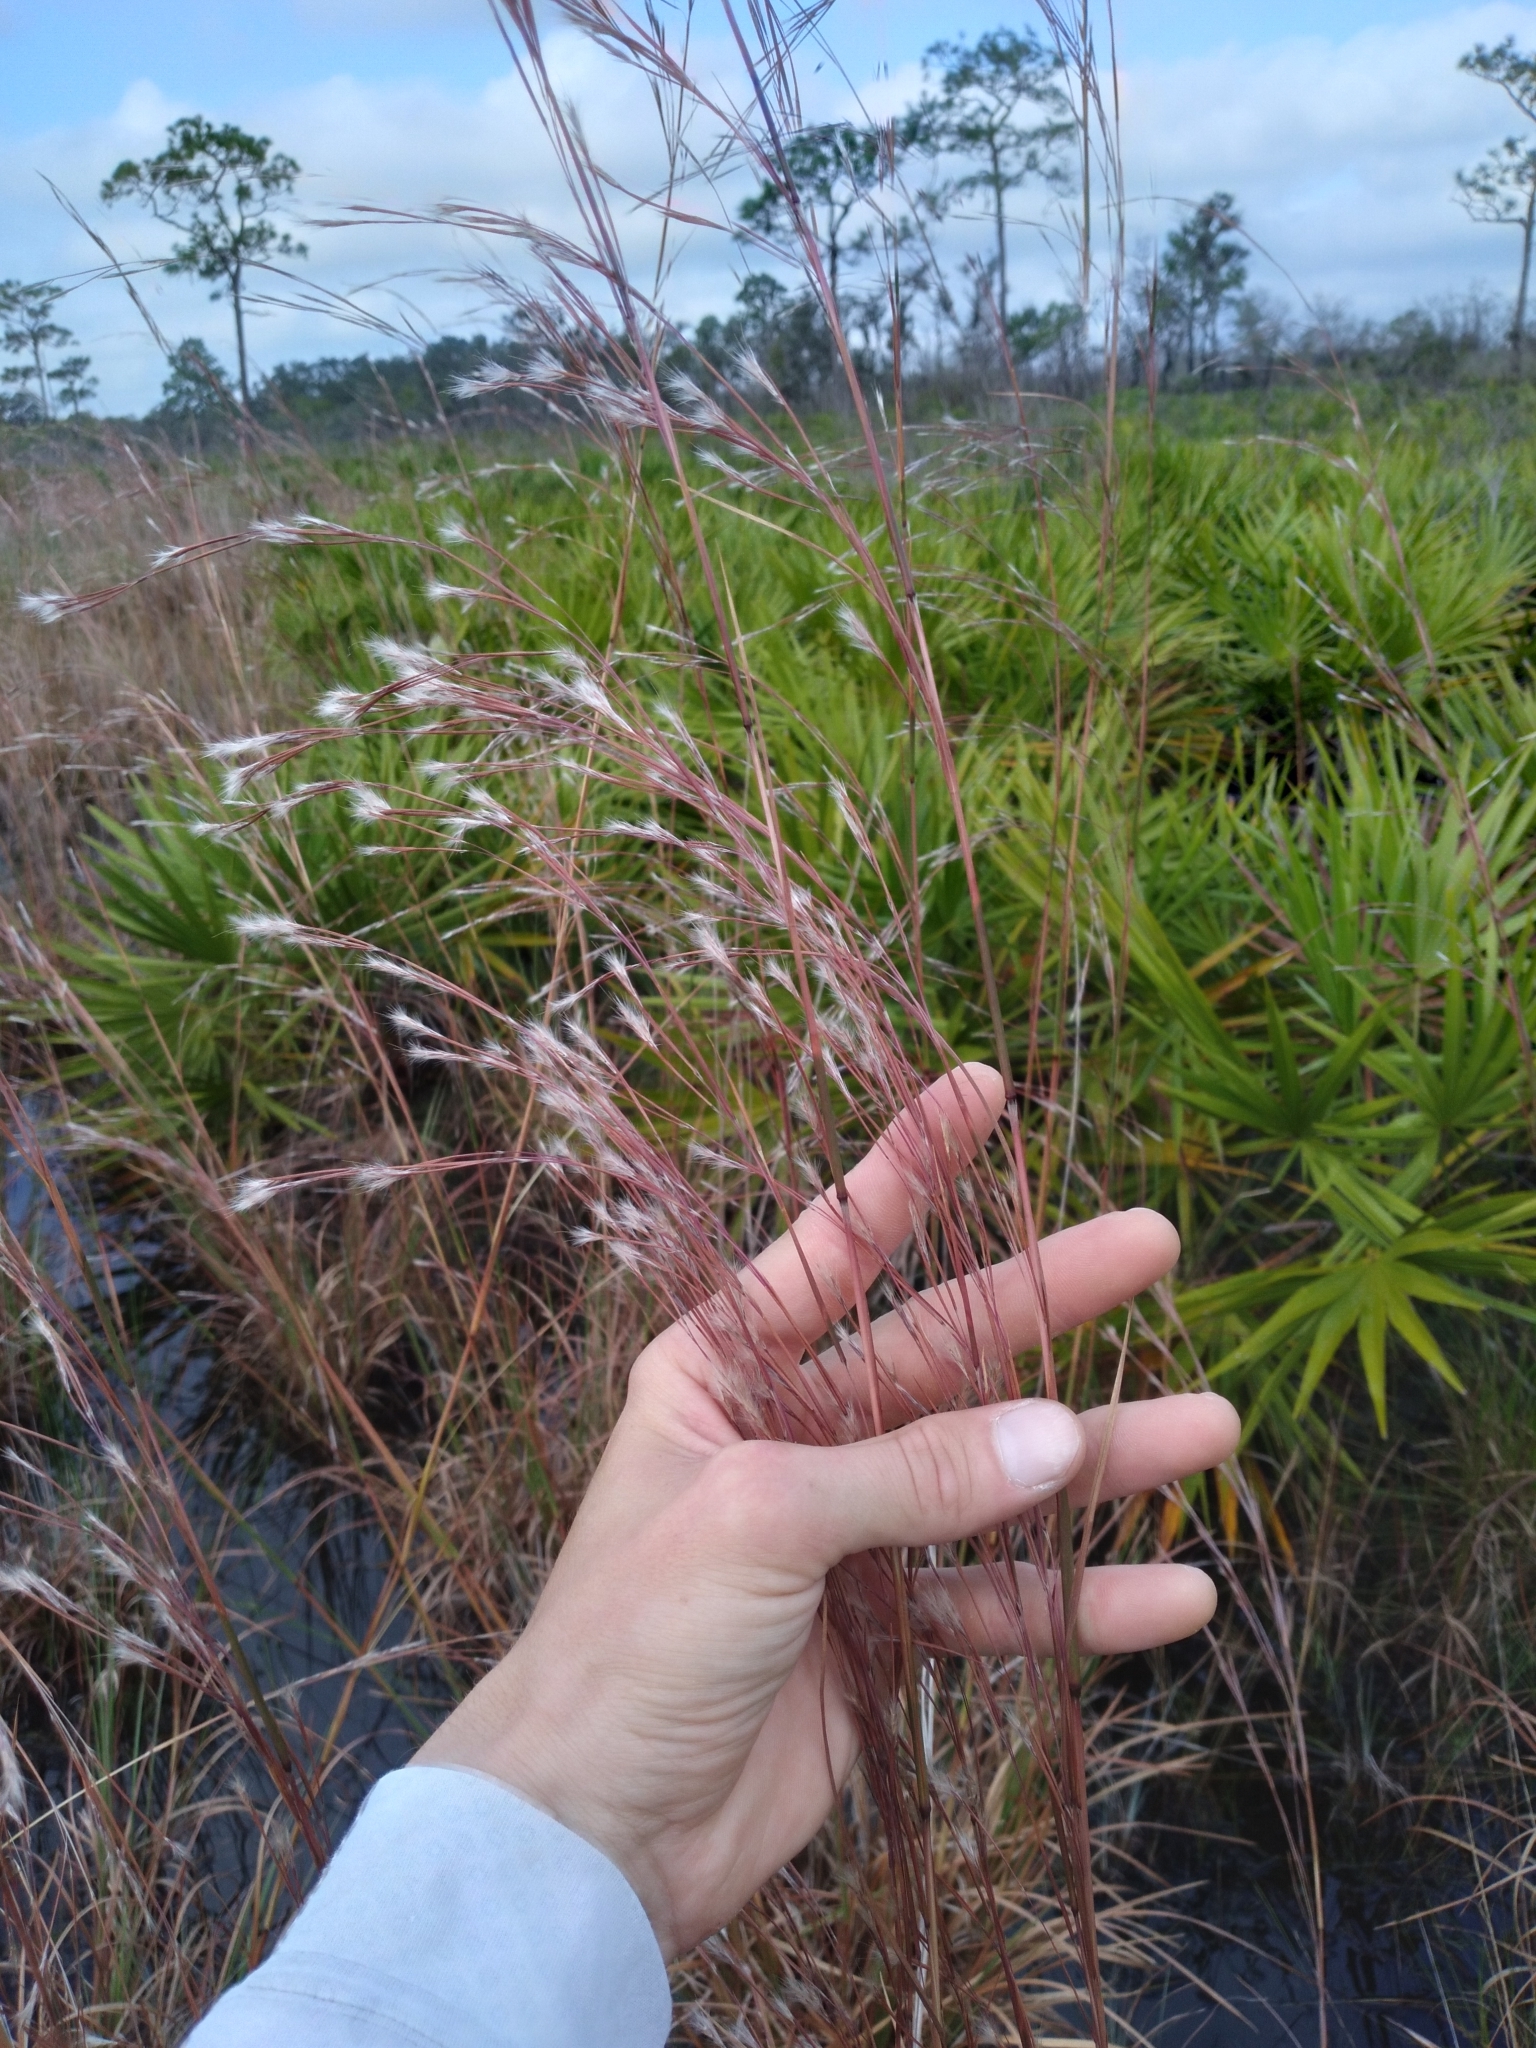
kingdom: Plantae
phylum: Tracheophyta
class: Liliopsida
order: Poales
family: Poaceae
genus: Andropogon
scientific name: Andropogon brachystachyus
